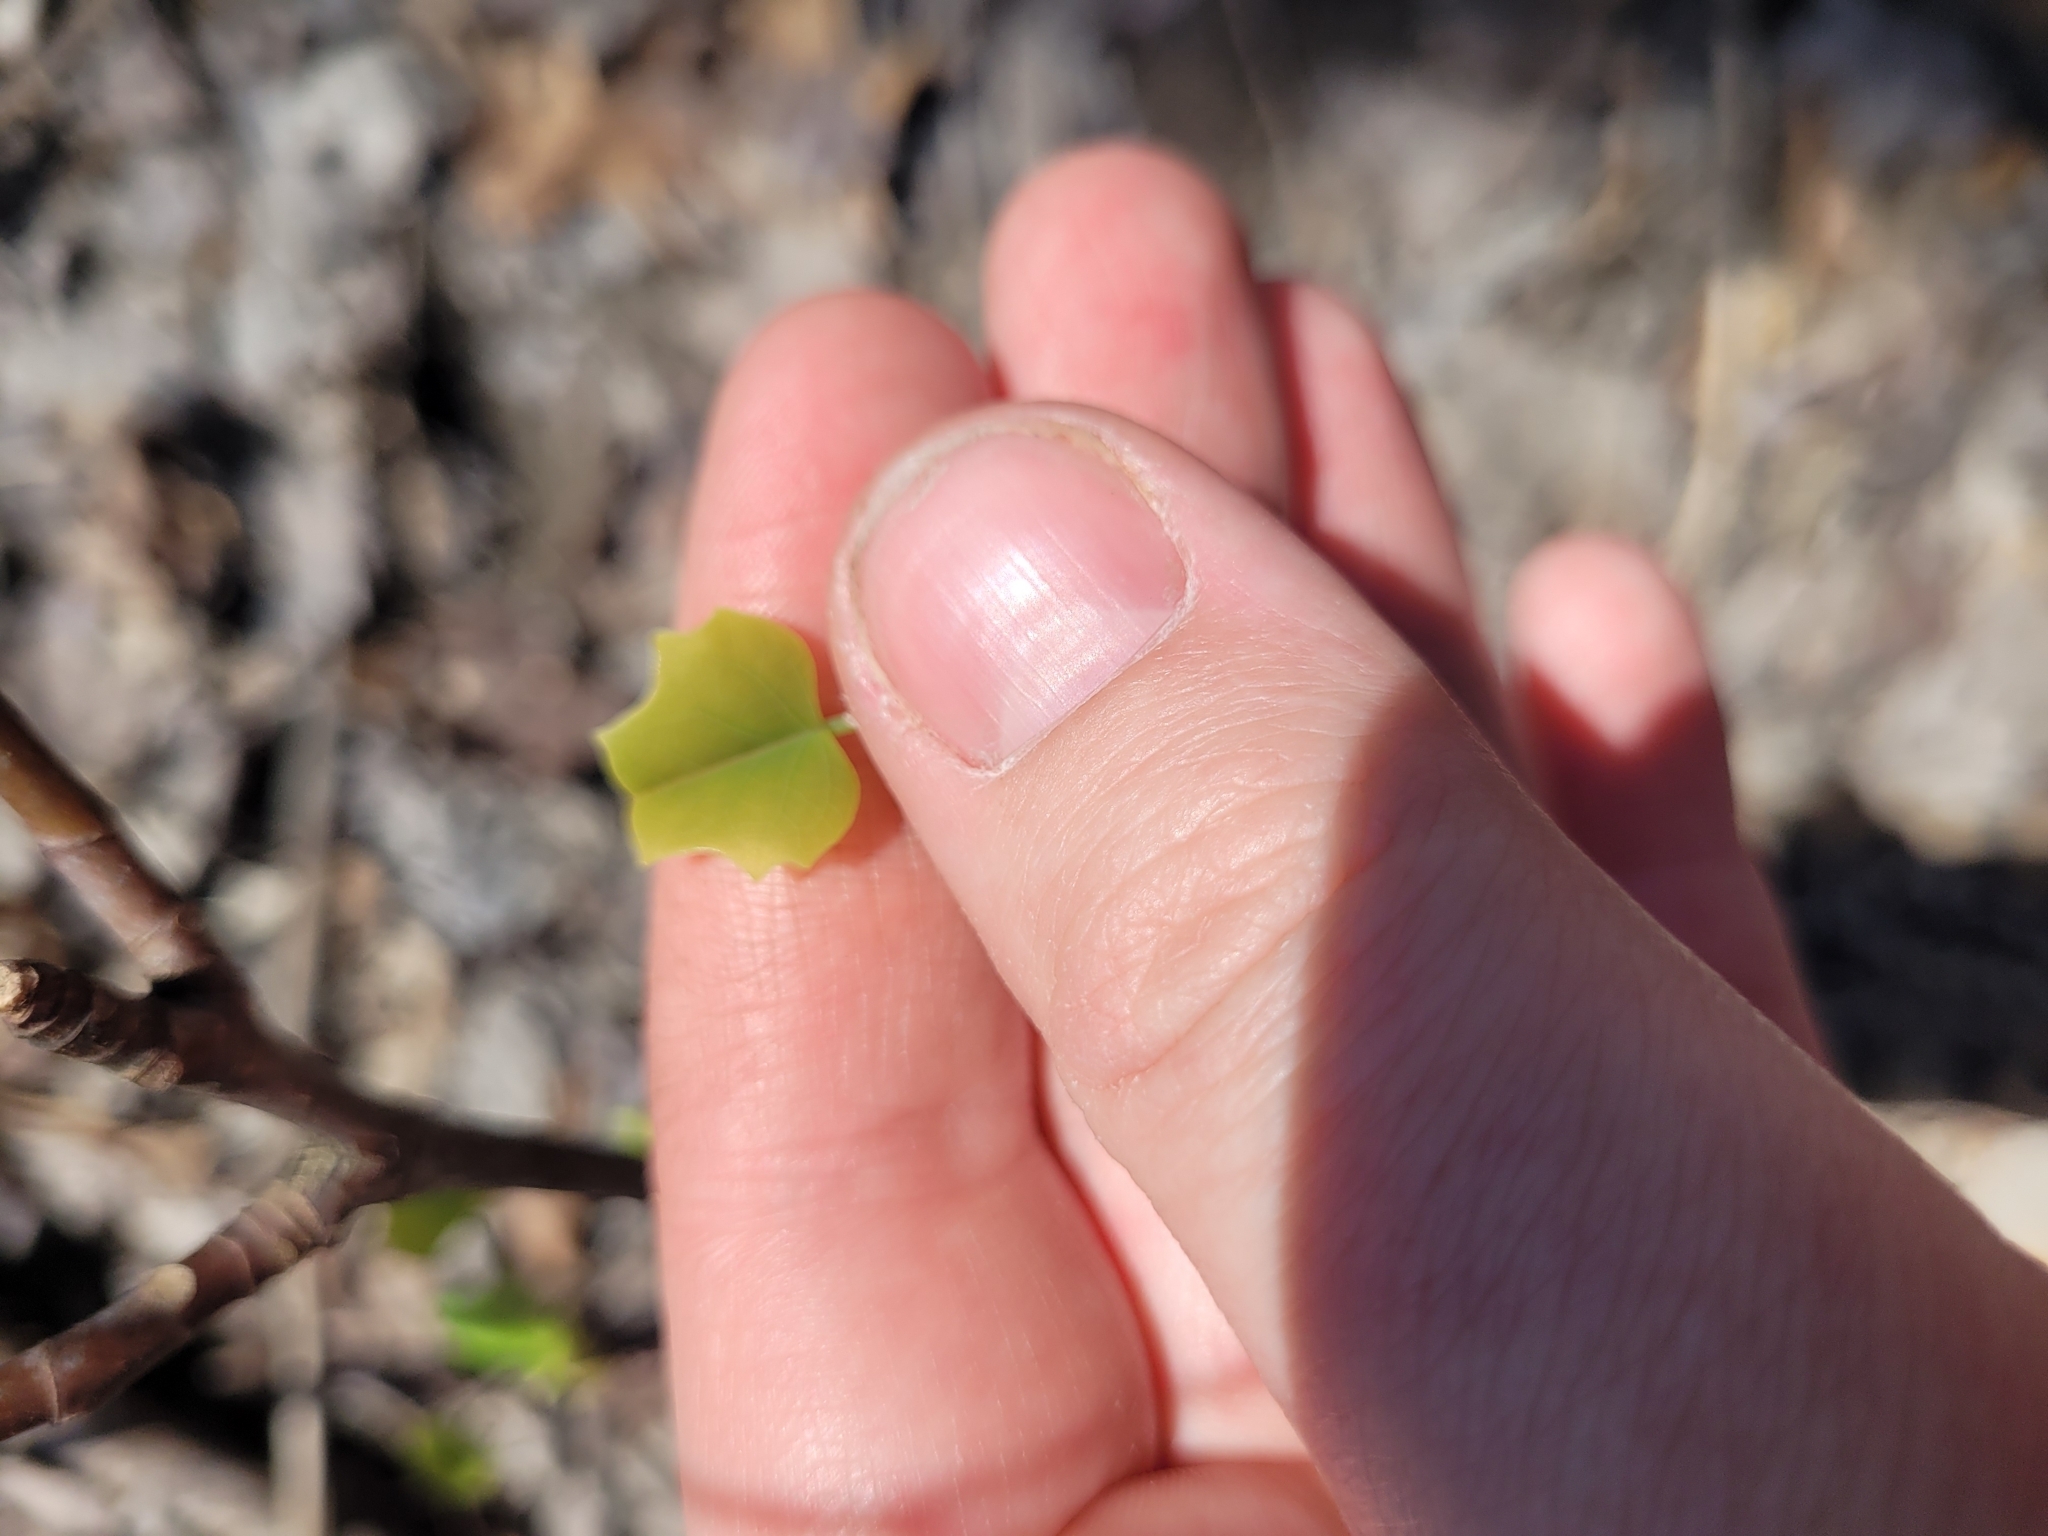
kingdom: Plantae
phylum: Tracheophyta
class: Magnoliopsida
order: Magnoliales
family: Magnoliaceae
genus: Liriodendron
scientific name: Liriodendron tulipifera
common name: Tulip tree
